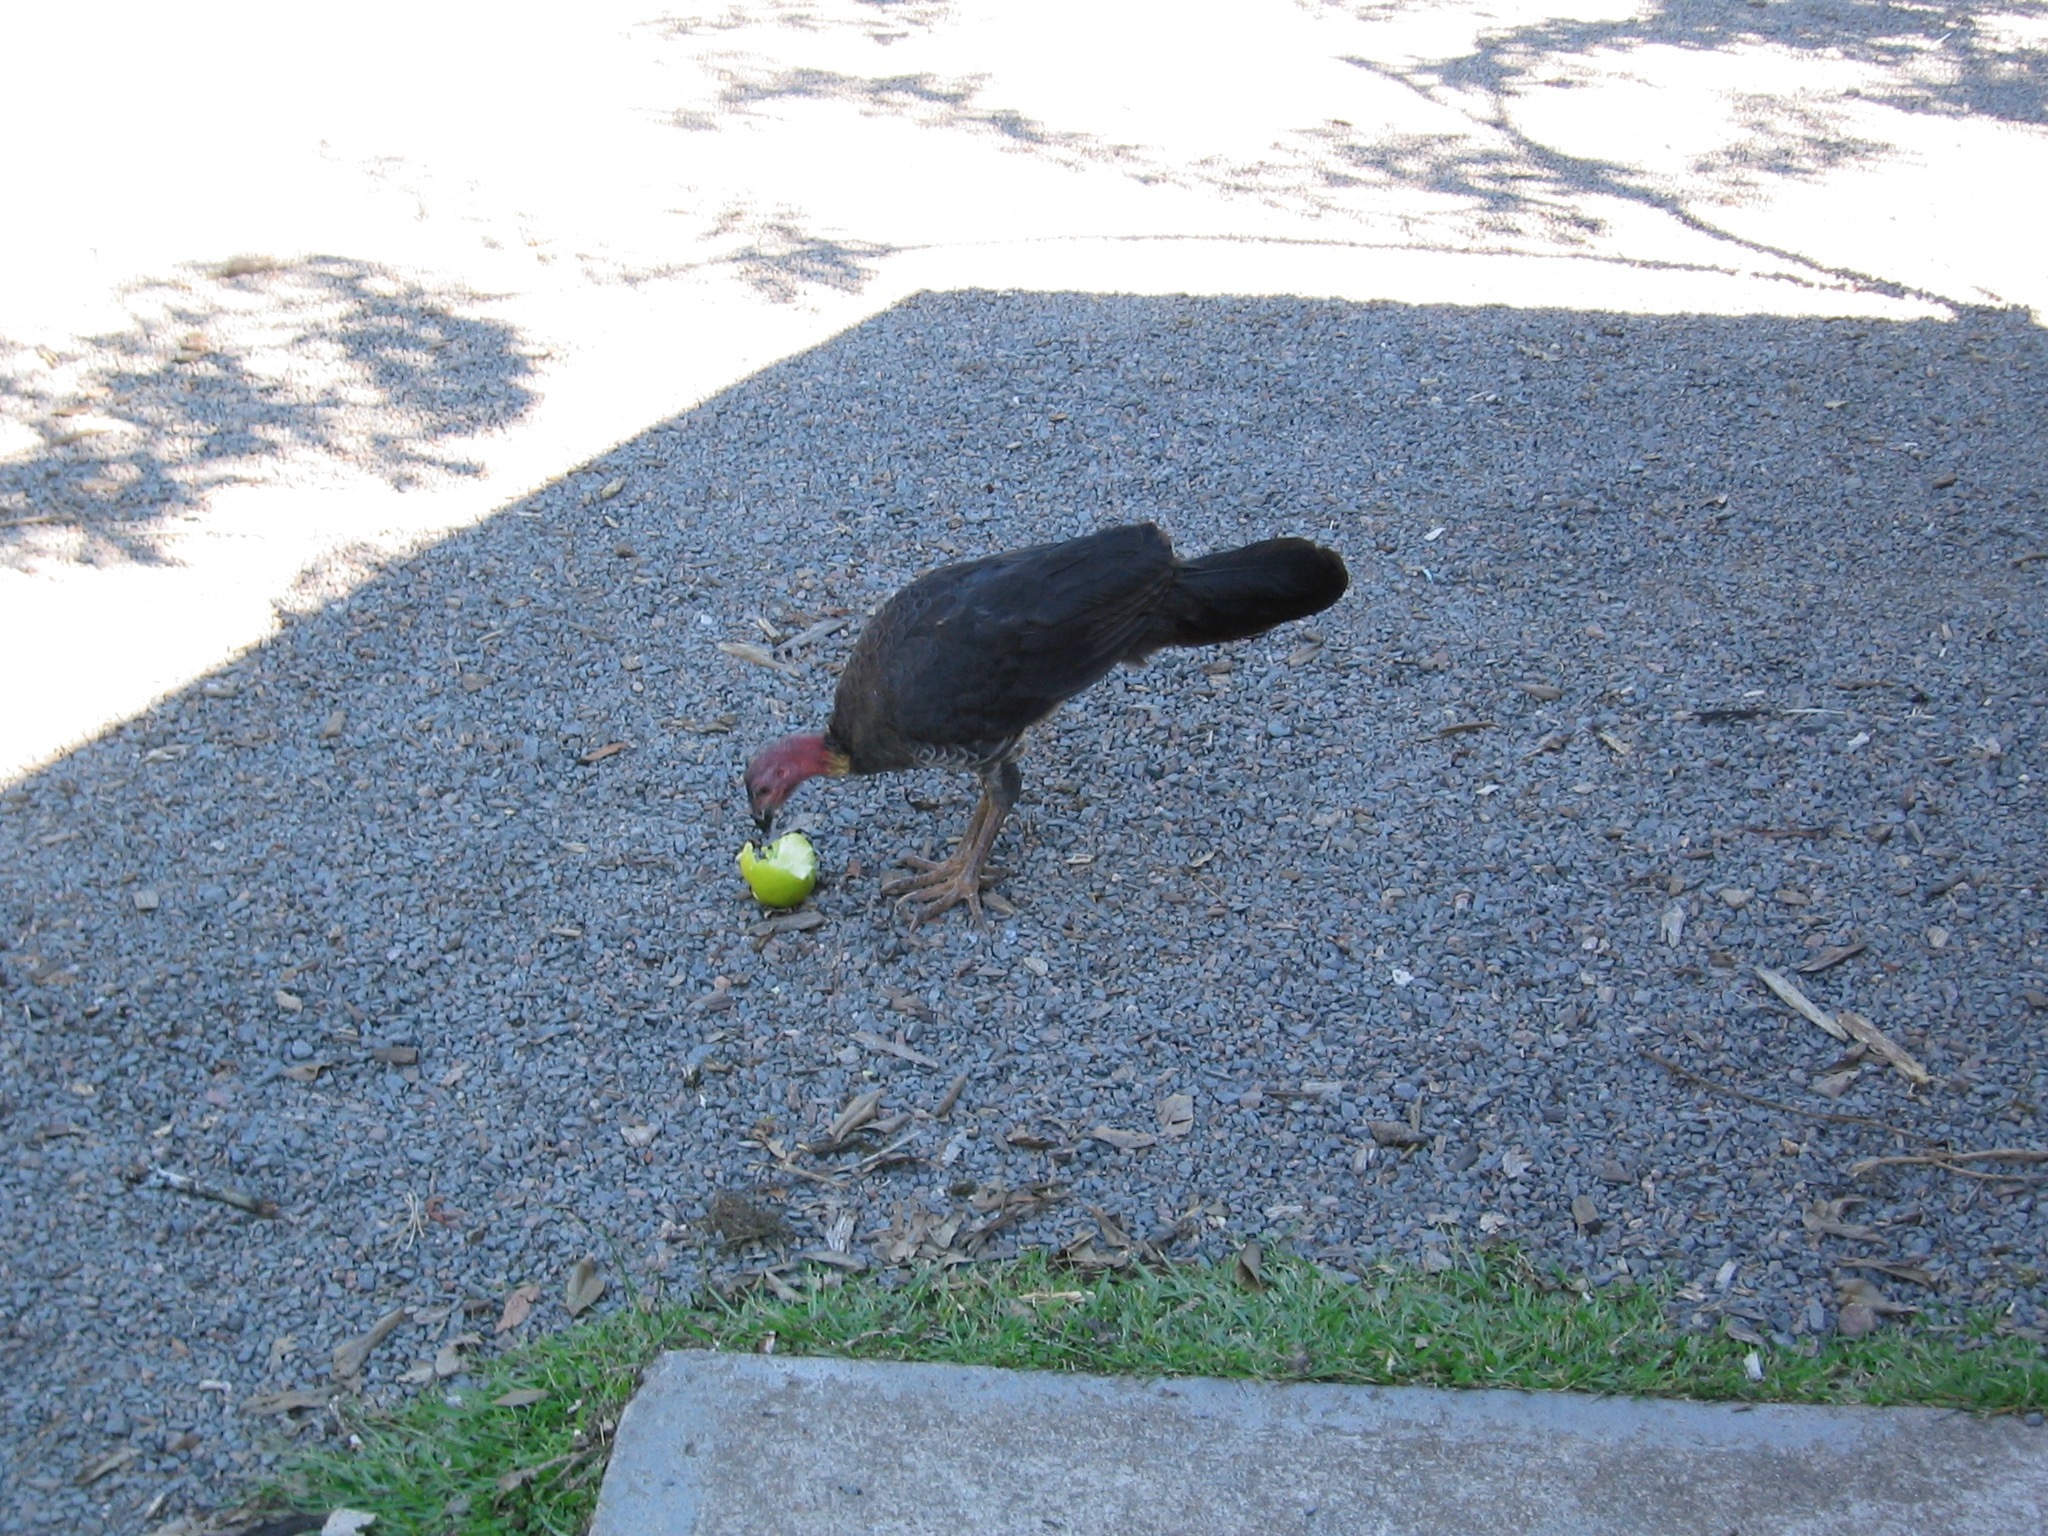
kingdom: Animalia
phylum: Chordata
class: Aves
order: Galliformes
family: Megapodiidae
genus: Alectura
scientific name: Alectura lathami
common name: Australian brushturkey
